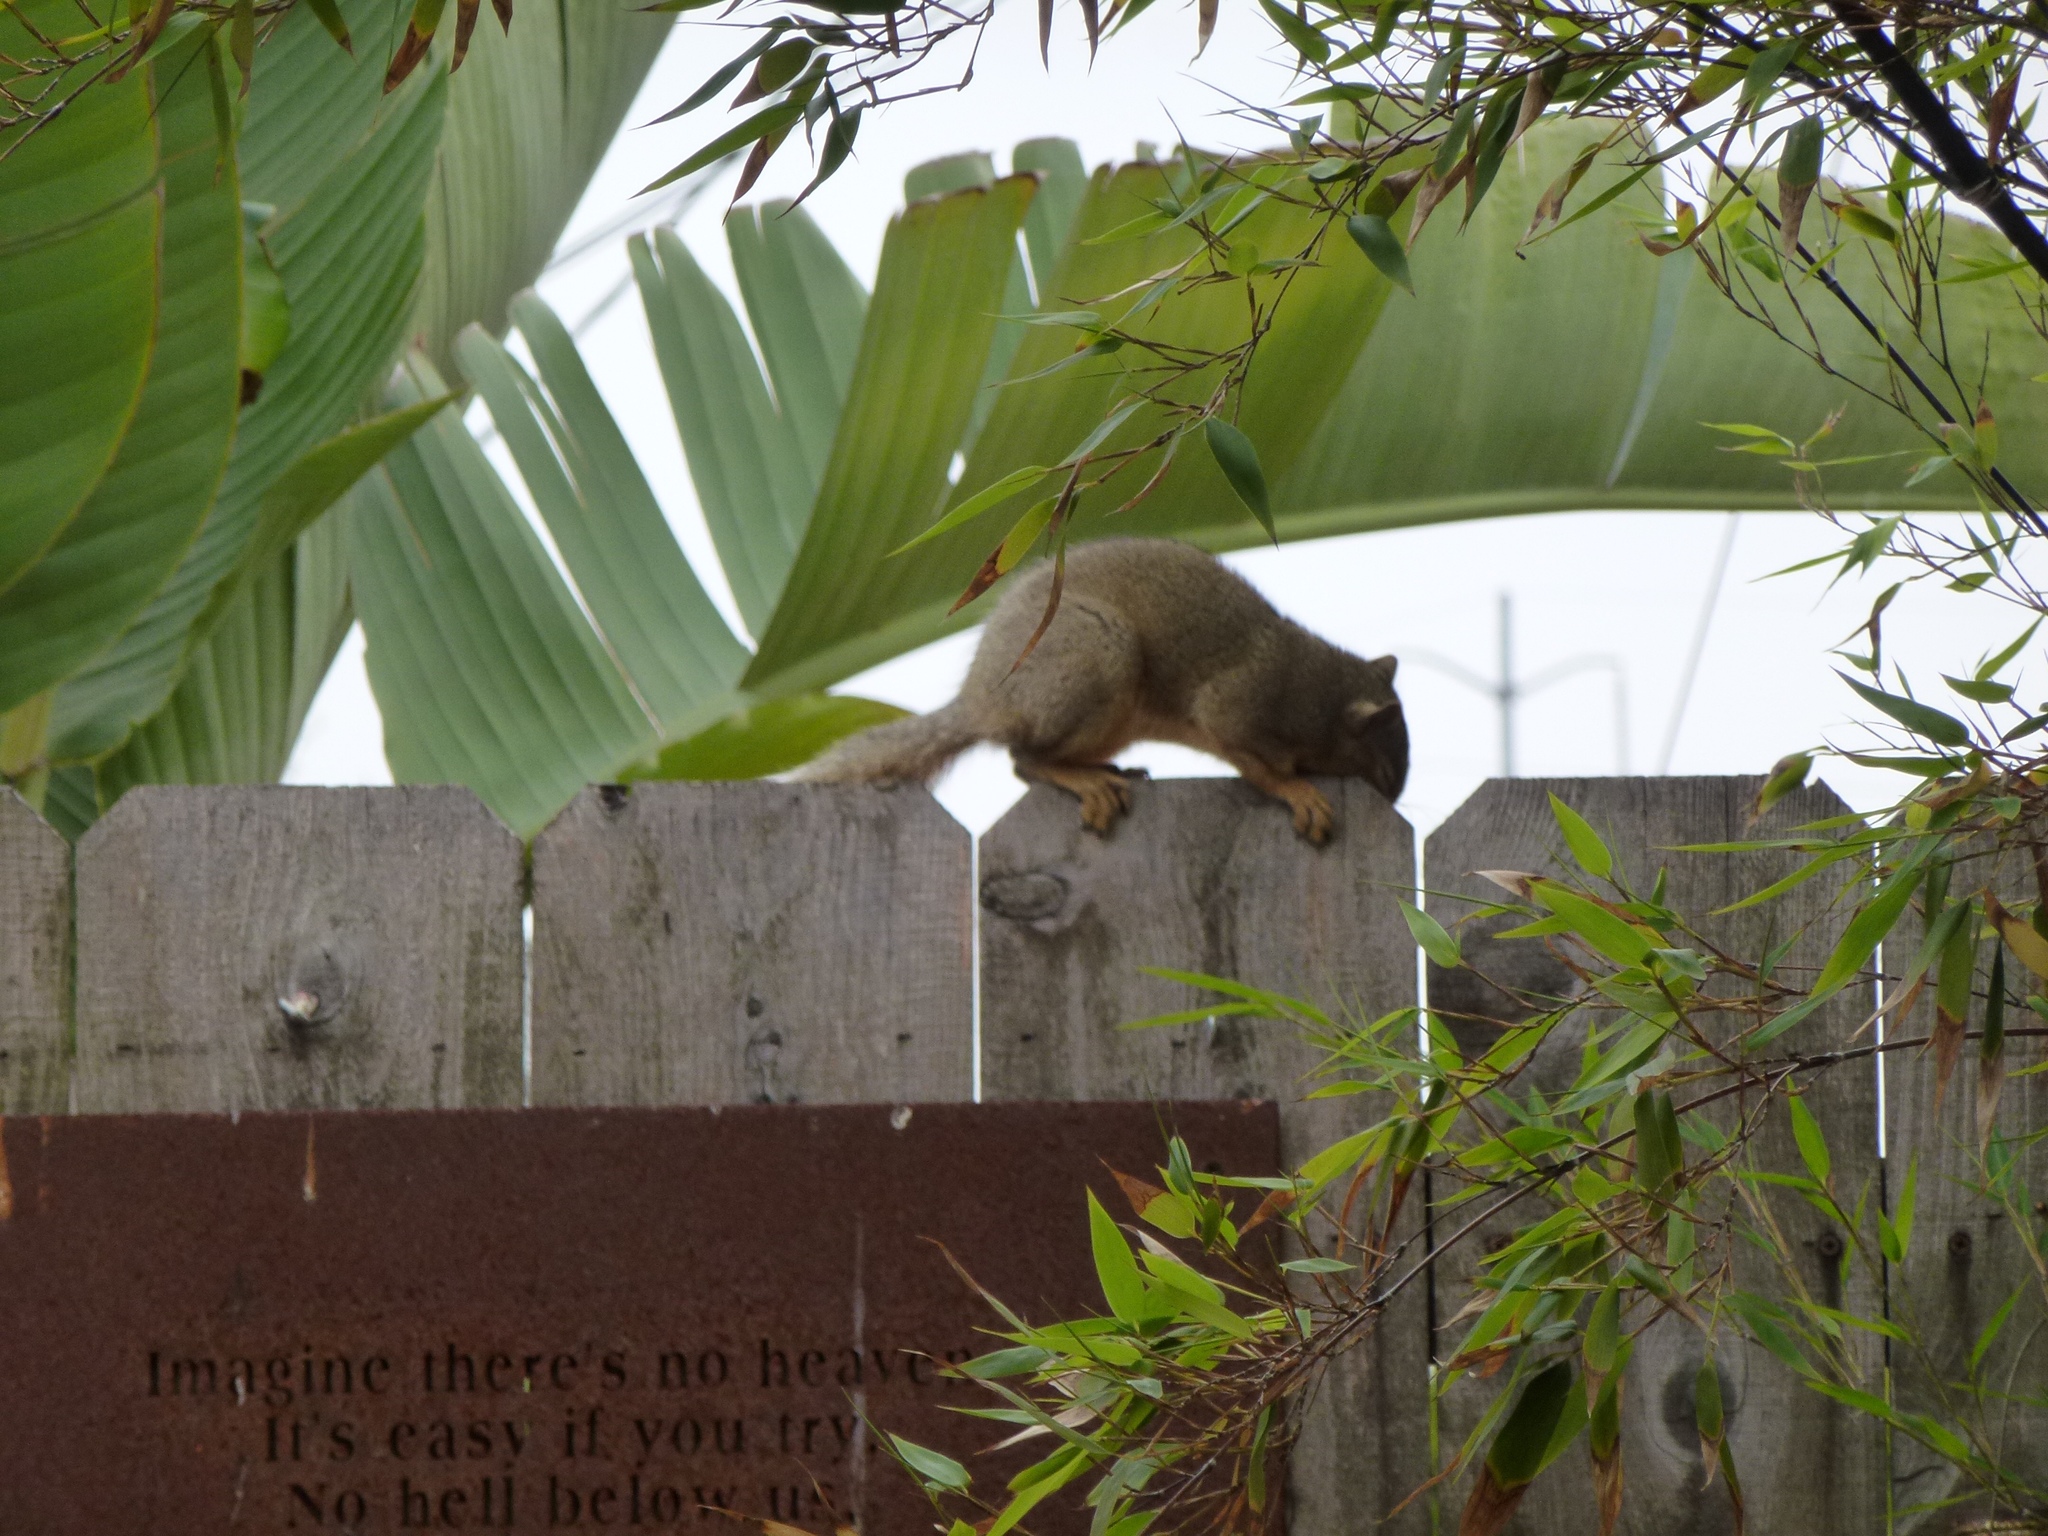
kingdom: Animalia
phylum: Chordata
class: Mammalia
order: Rodentia
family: Sciuridae
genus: Sciurus
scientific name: Sciurus niger
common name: Fox squirrel
